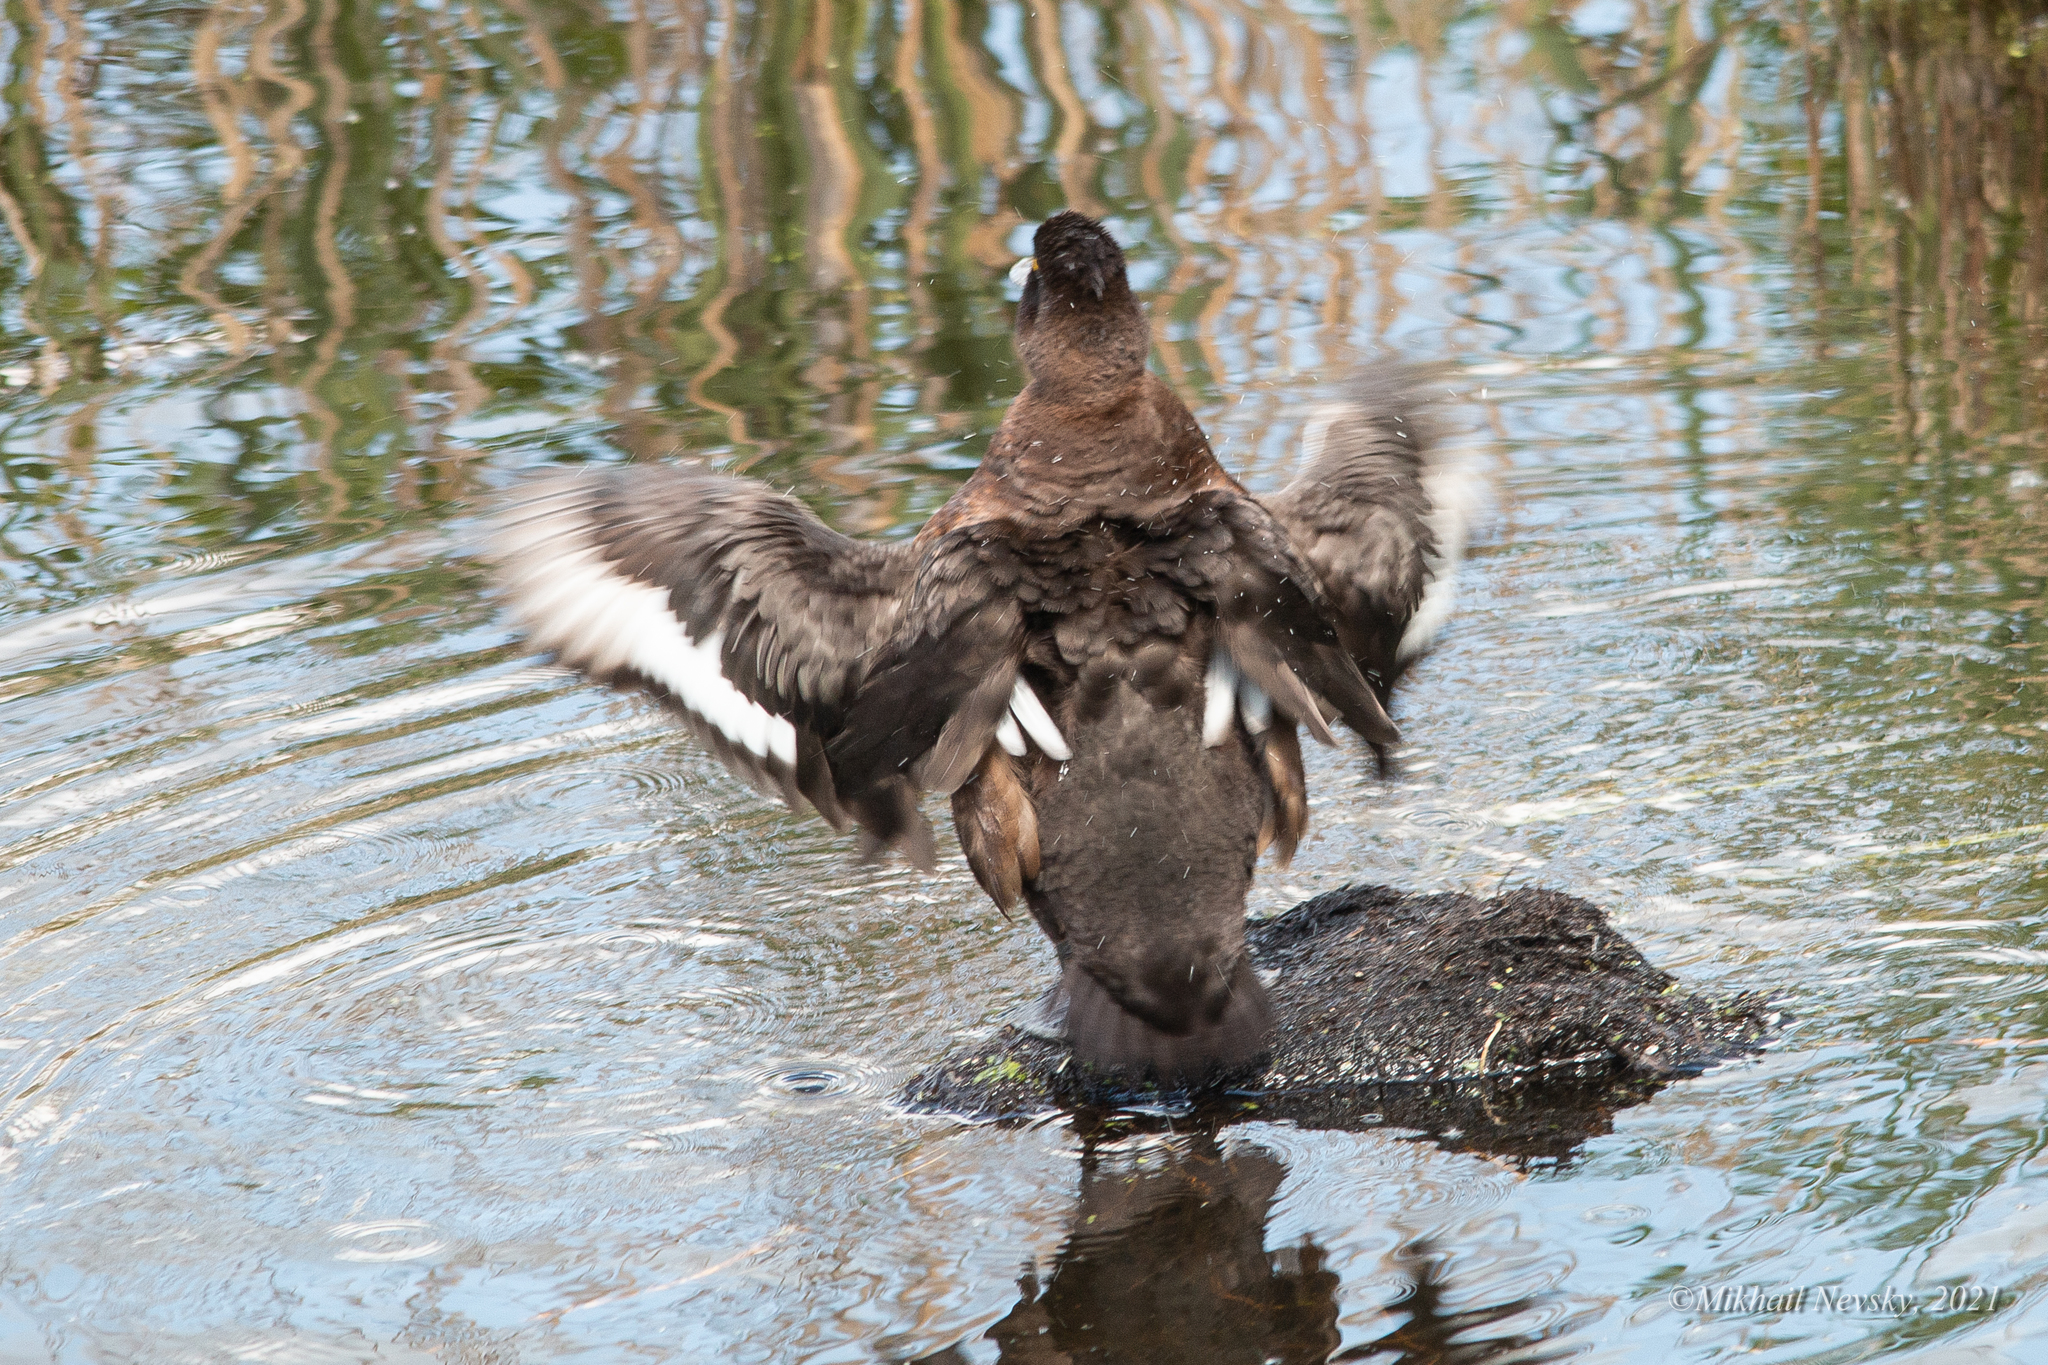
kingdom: Animalia
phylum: Chordata
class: Aves
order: Anseriformes
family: Anatidae
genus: Aythya
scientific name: Aythya fuligula
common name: Tufted duck
